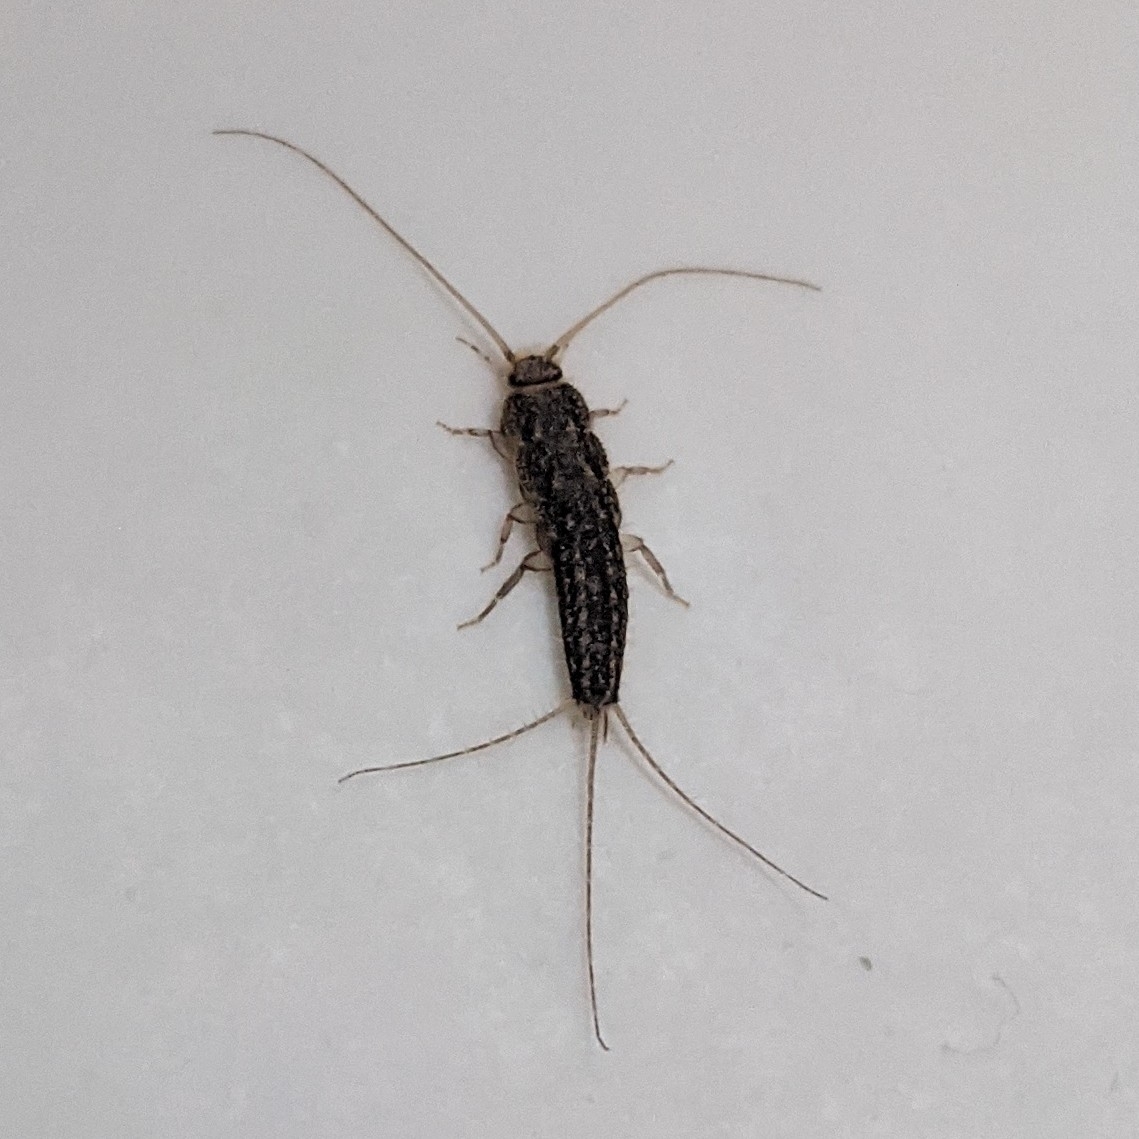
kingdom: Animalia
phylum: Arthropoda
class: Insecta
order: Zygentoma
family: Lepismatidae
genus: Ctenolepisma
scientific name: Ctenolepisma lineata
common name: Four-lined silverfish
